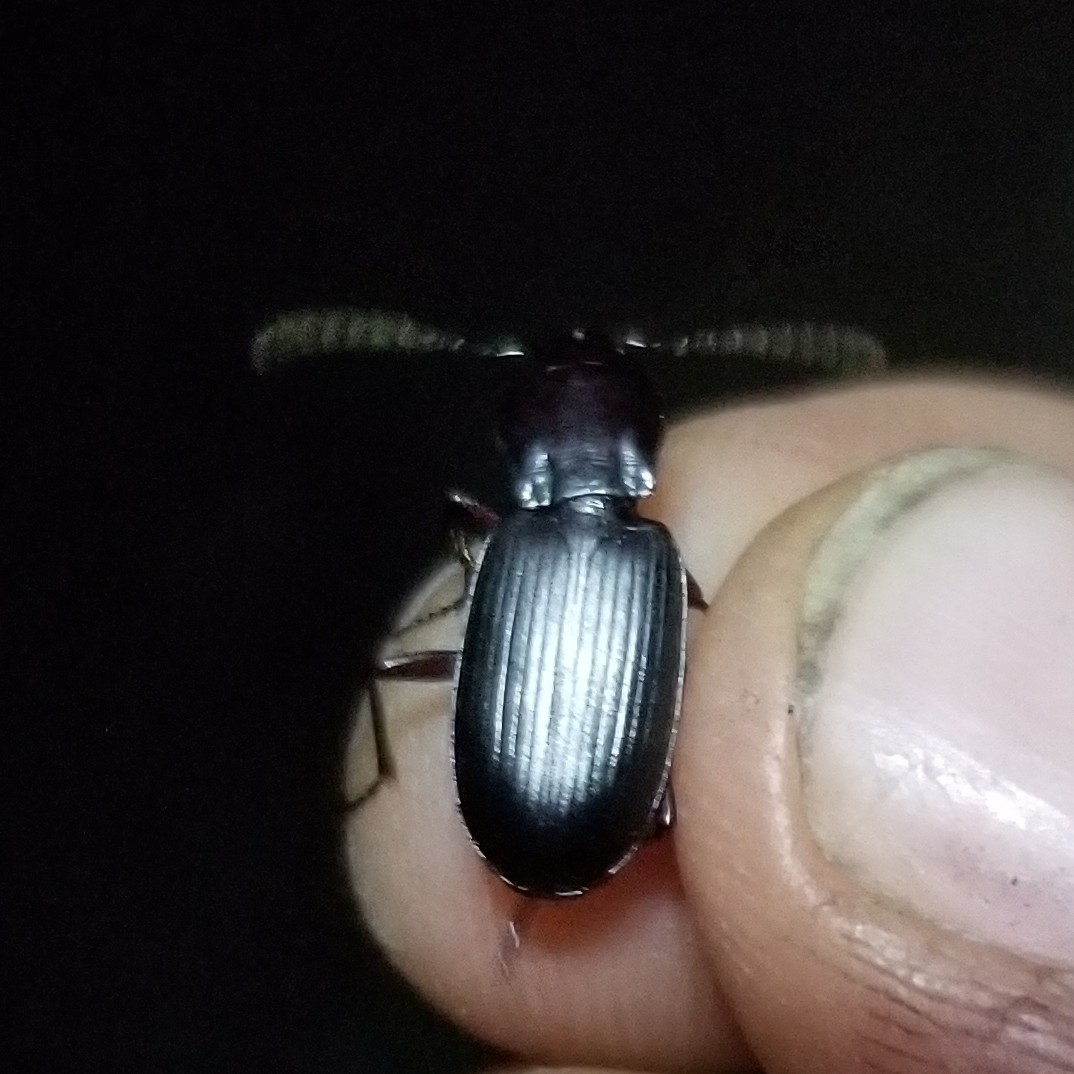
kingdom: Animalia
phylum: Arthropoda
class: Insecta
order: Coleoptera
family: Carabidae
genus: Laemostenus
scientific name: Laemostenus complanatus
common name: Cosmopolitan ground beetle
